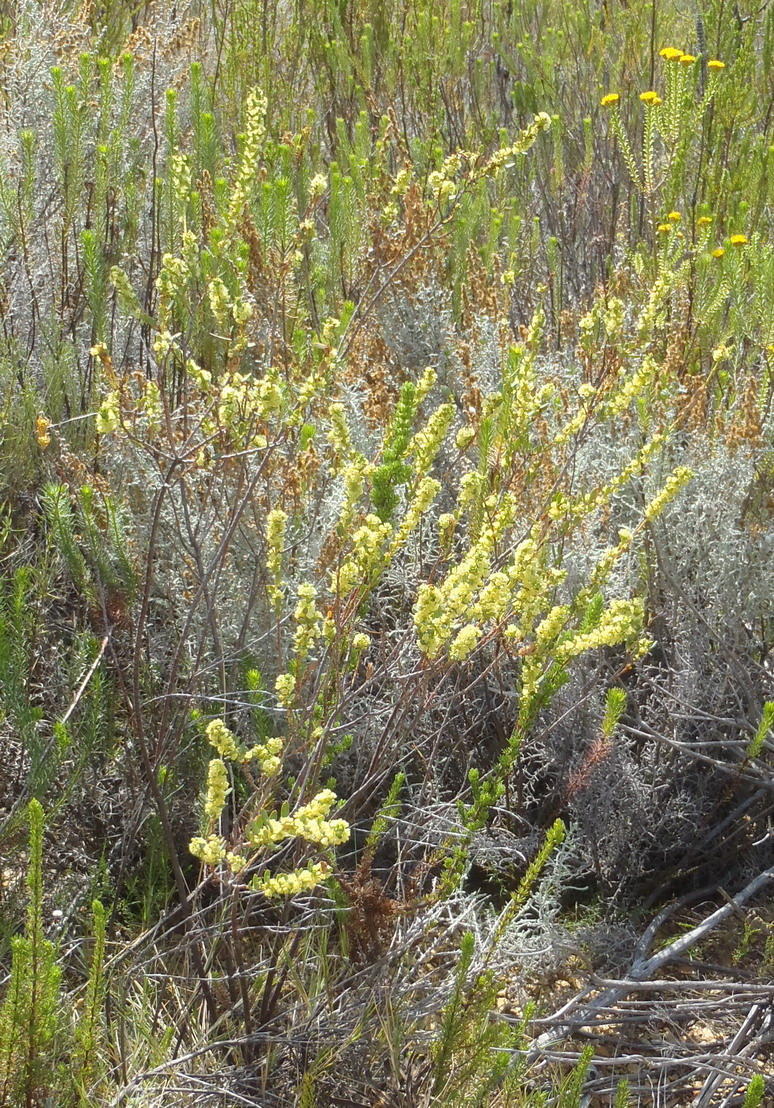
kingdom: Plantae
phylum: Tracheophyta
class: Magnoliopsida
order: Malpighiales
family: Peraceae
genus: Clutia
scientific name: Clutia polifolia
